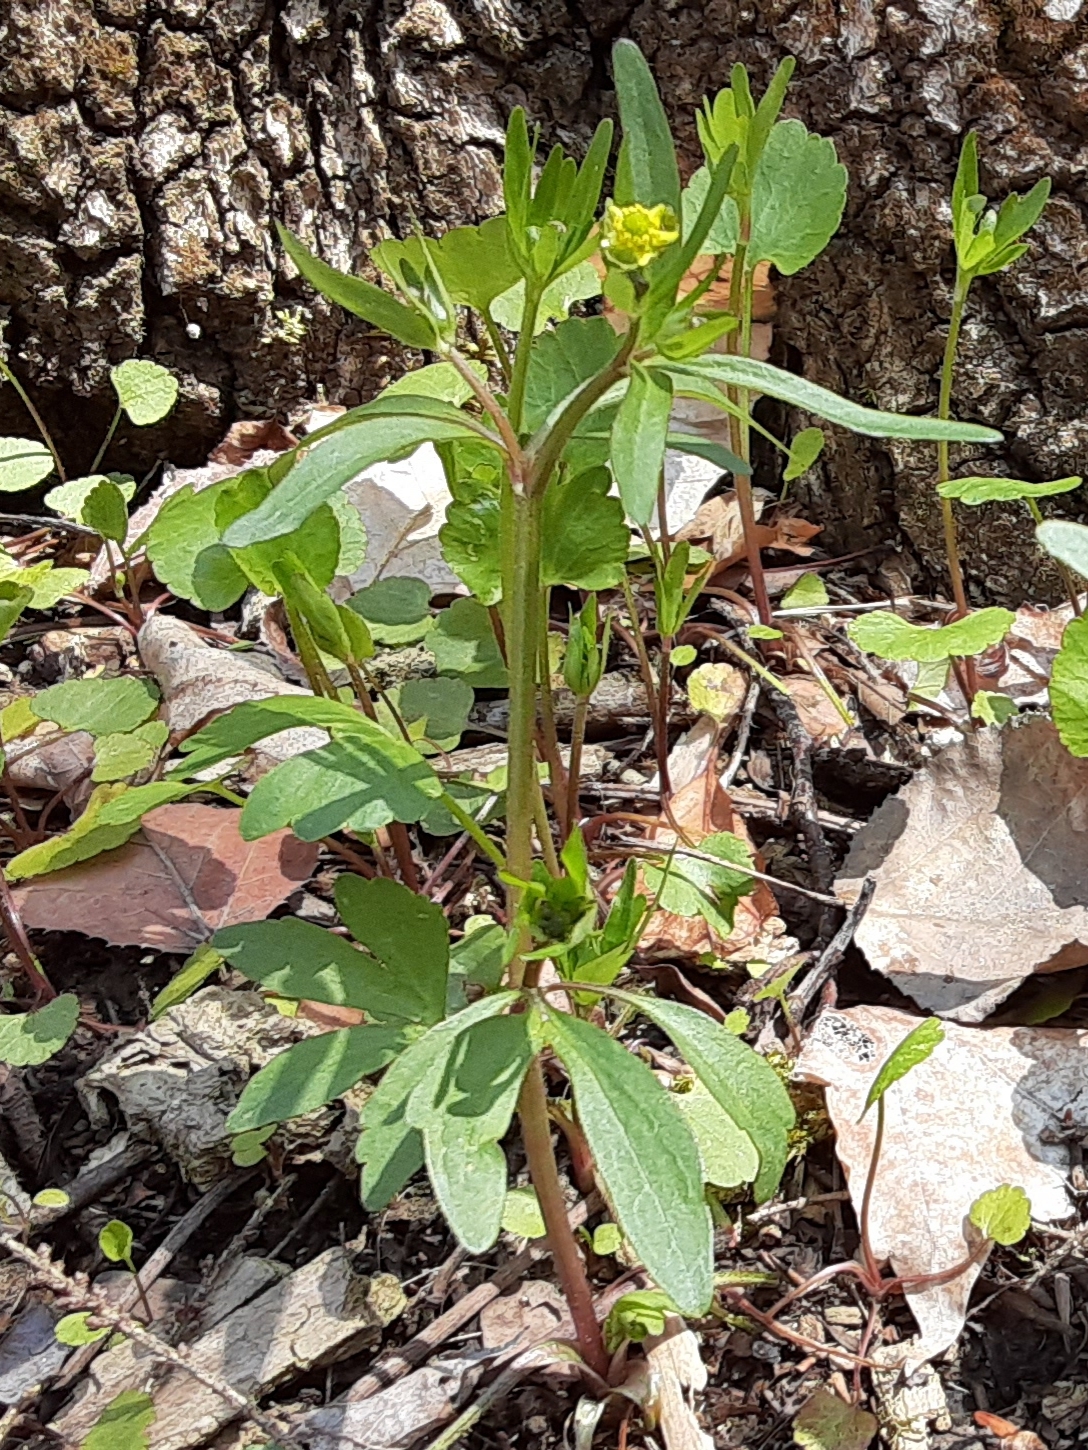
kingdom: Plantae
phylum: Tracheophyta
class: Magnoliopsida
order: Ranunculales
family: Ranunculaceae
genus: Ranunculus
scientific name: Ranunculus abortivus
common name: Early wood buttercup
